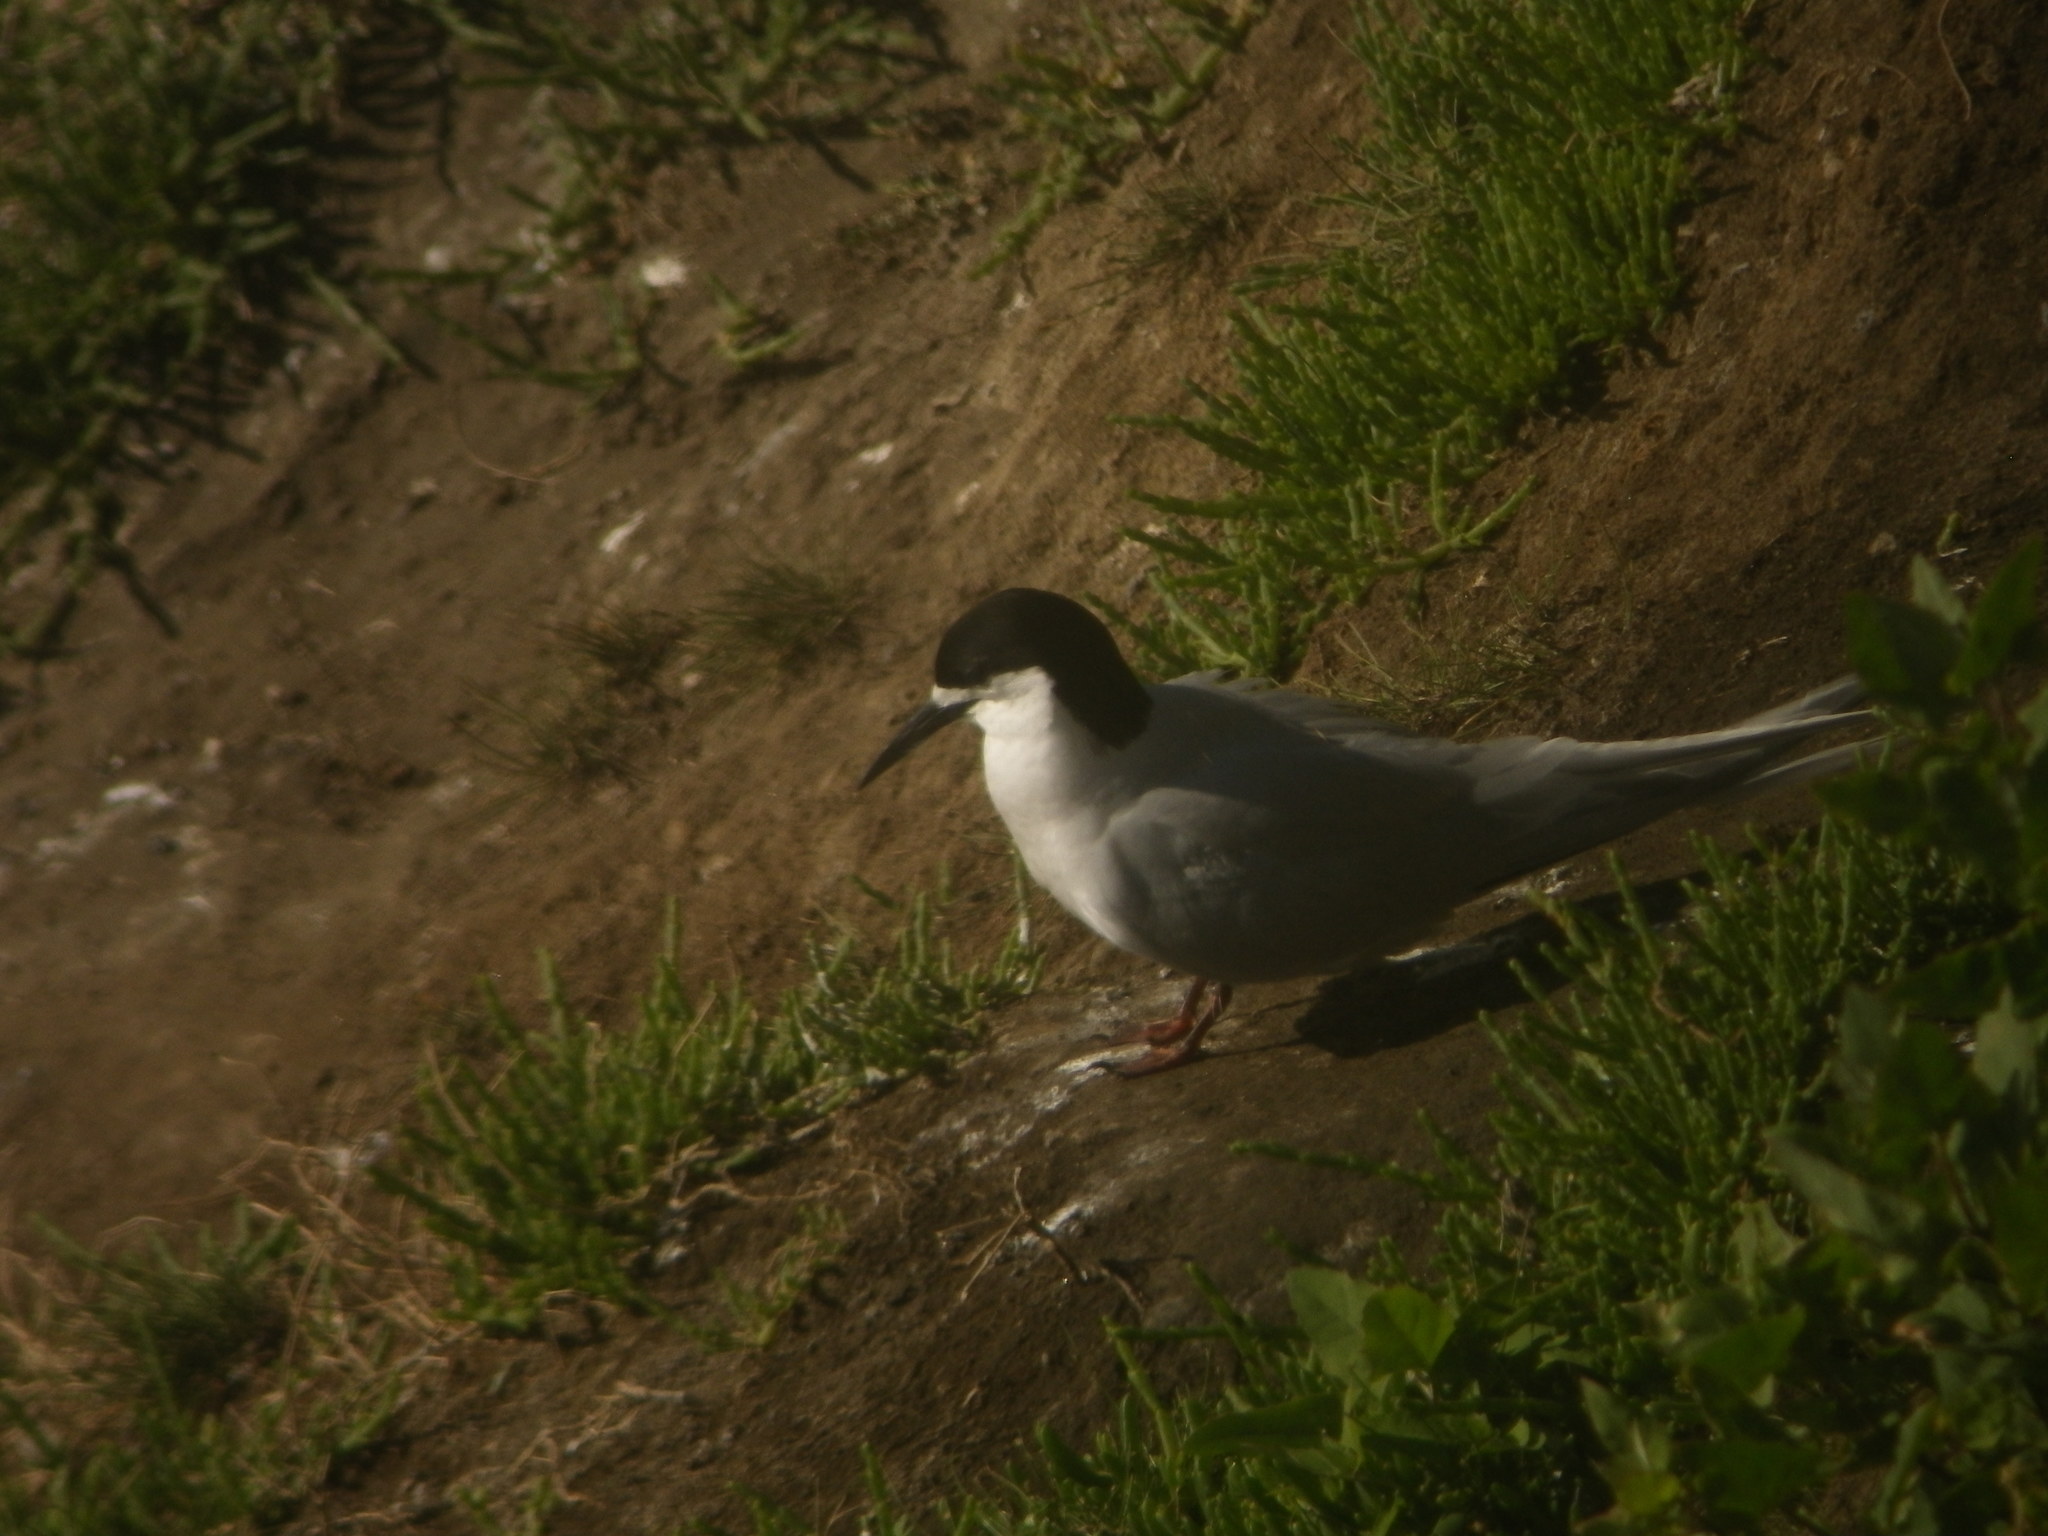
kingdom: Animalia
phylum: Chordata
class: Aves
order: Charadriiformes
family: Laridae
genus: Sterna
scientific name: Sterna striata
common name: White-fronted tern
